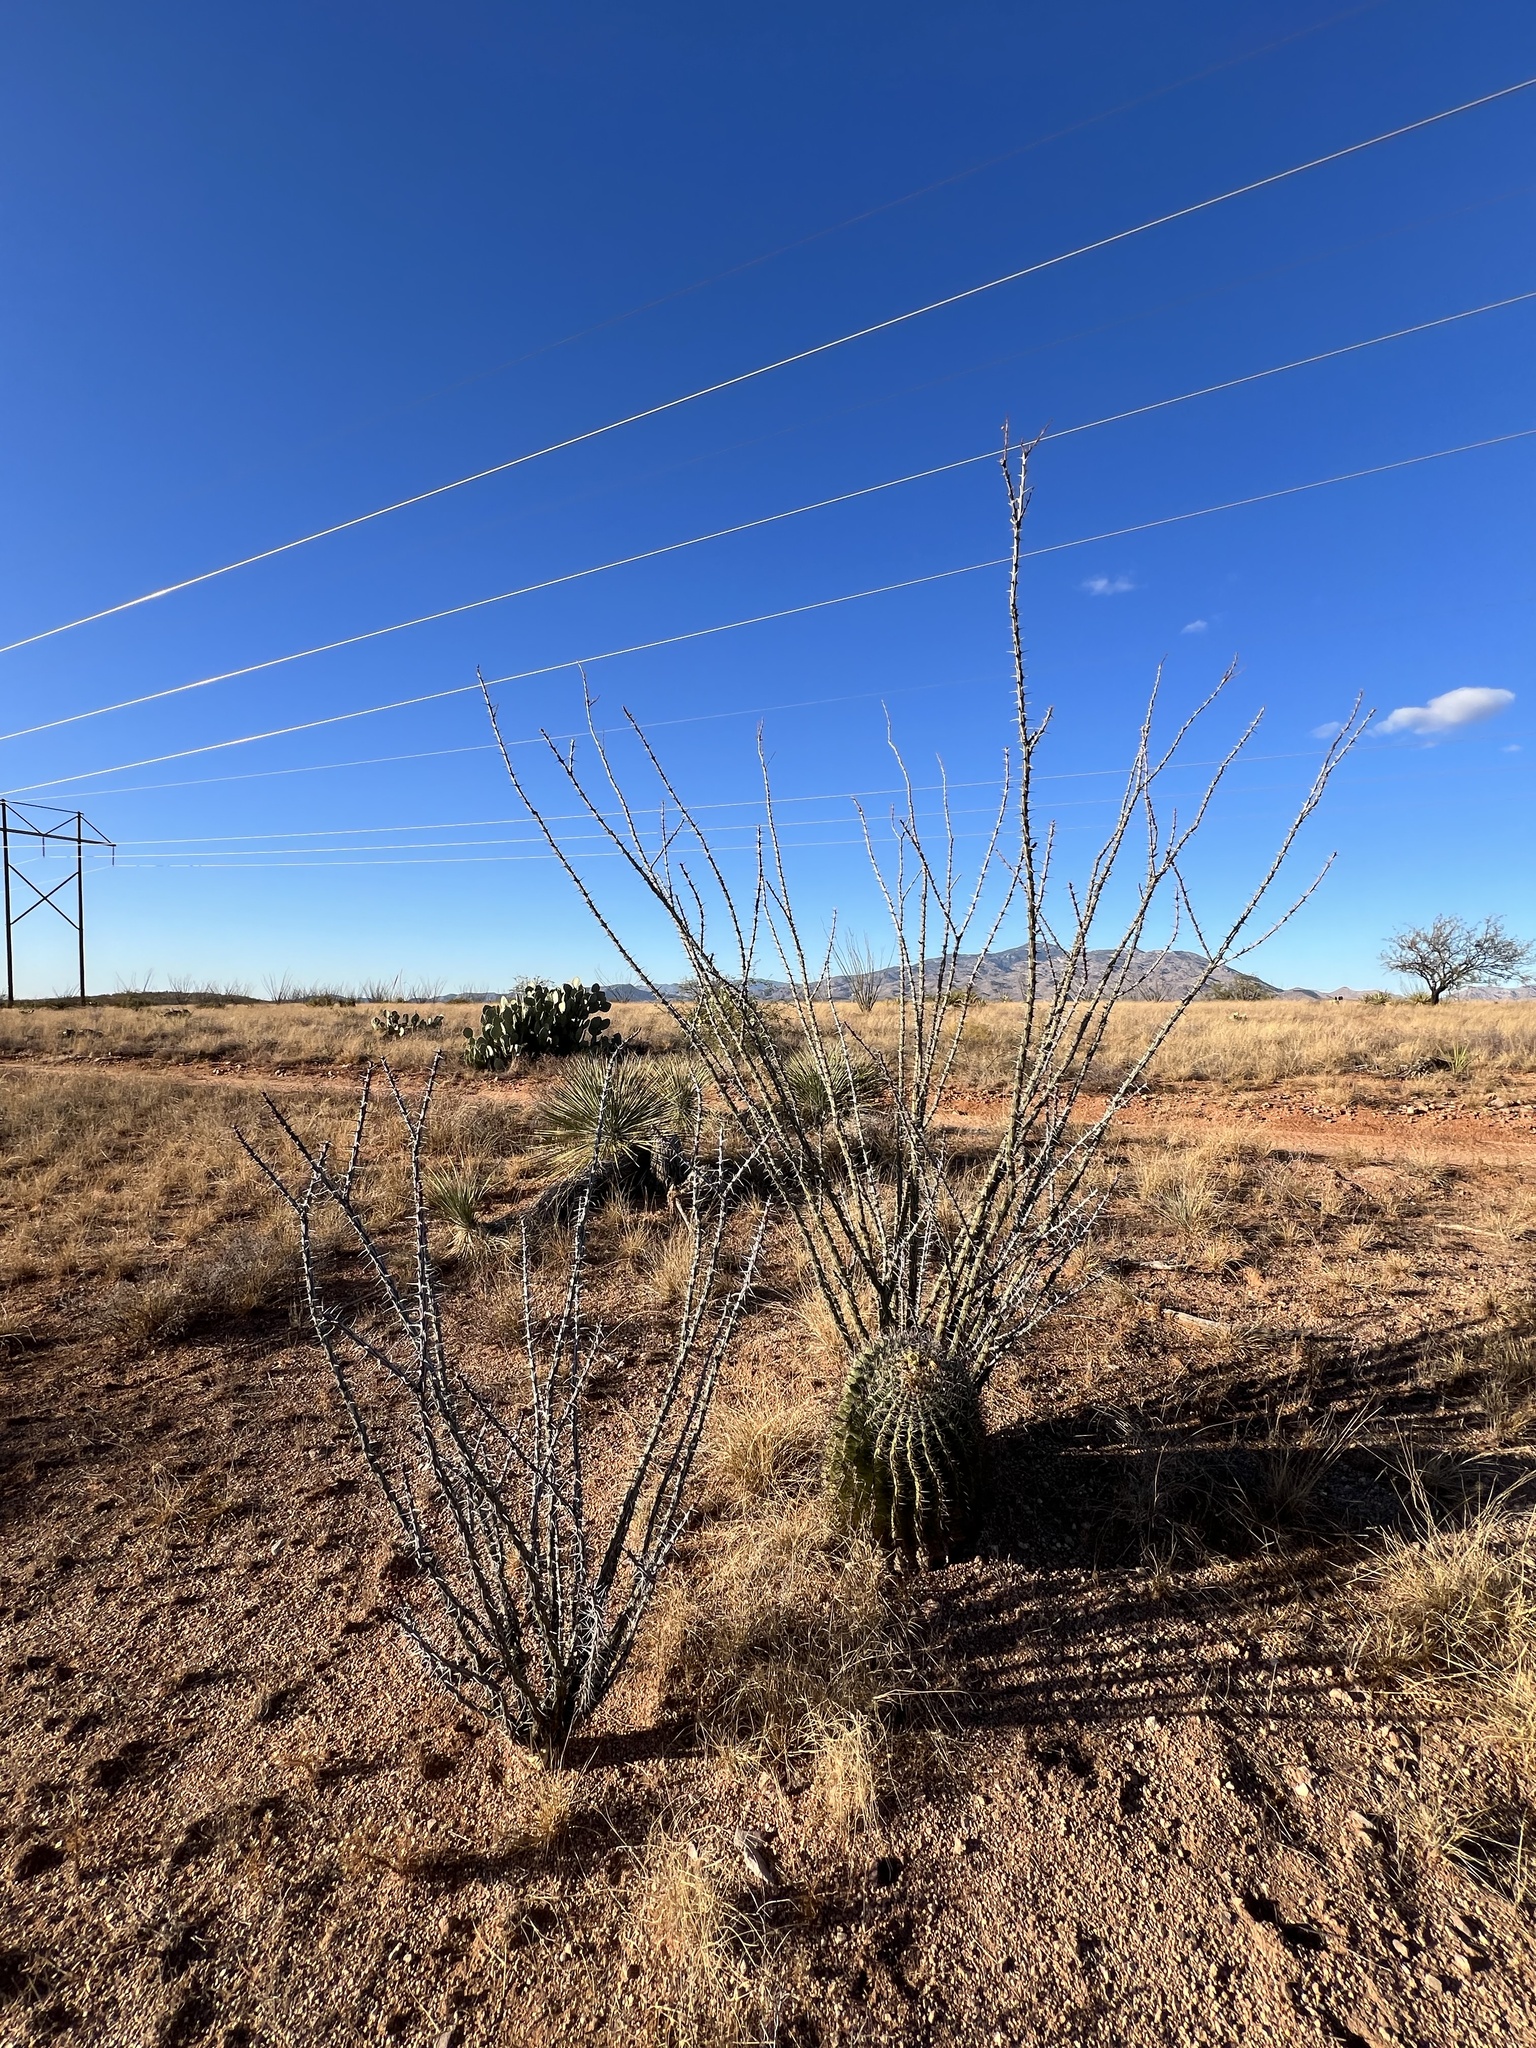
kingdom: Plantae
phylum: Tracheophyta
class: Magnoliopsida
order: Ericales
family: Fouquieriaceae
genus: Fouquieria
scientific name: Fouquieria splendens
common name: Vine-cactus
